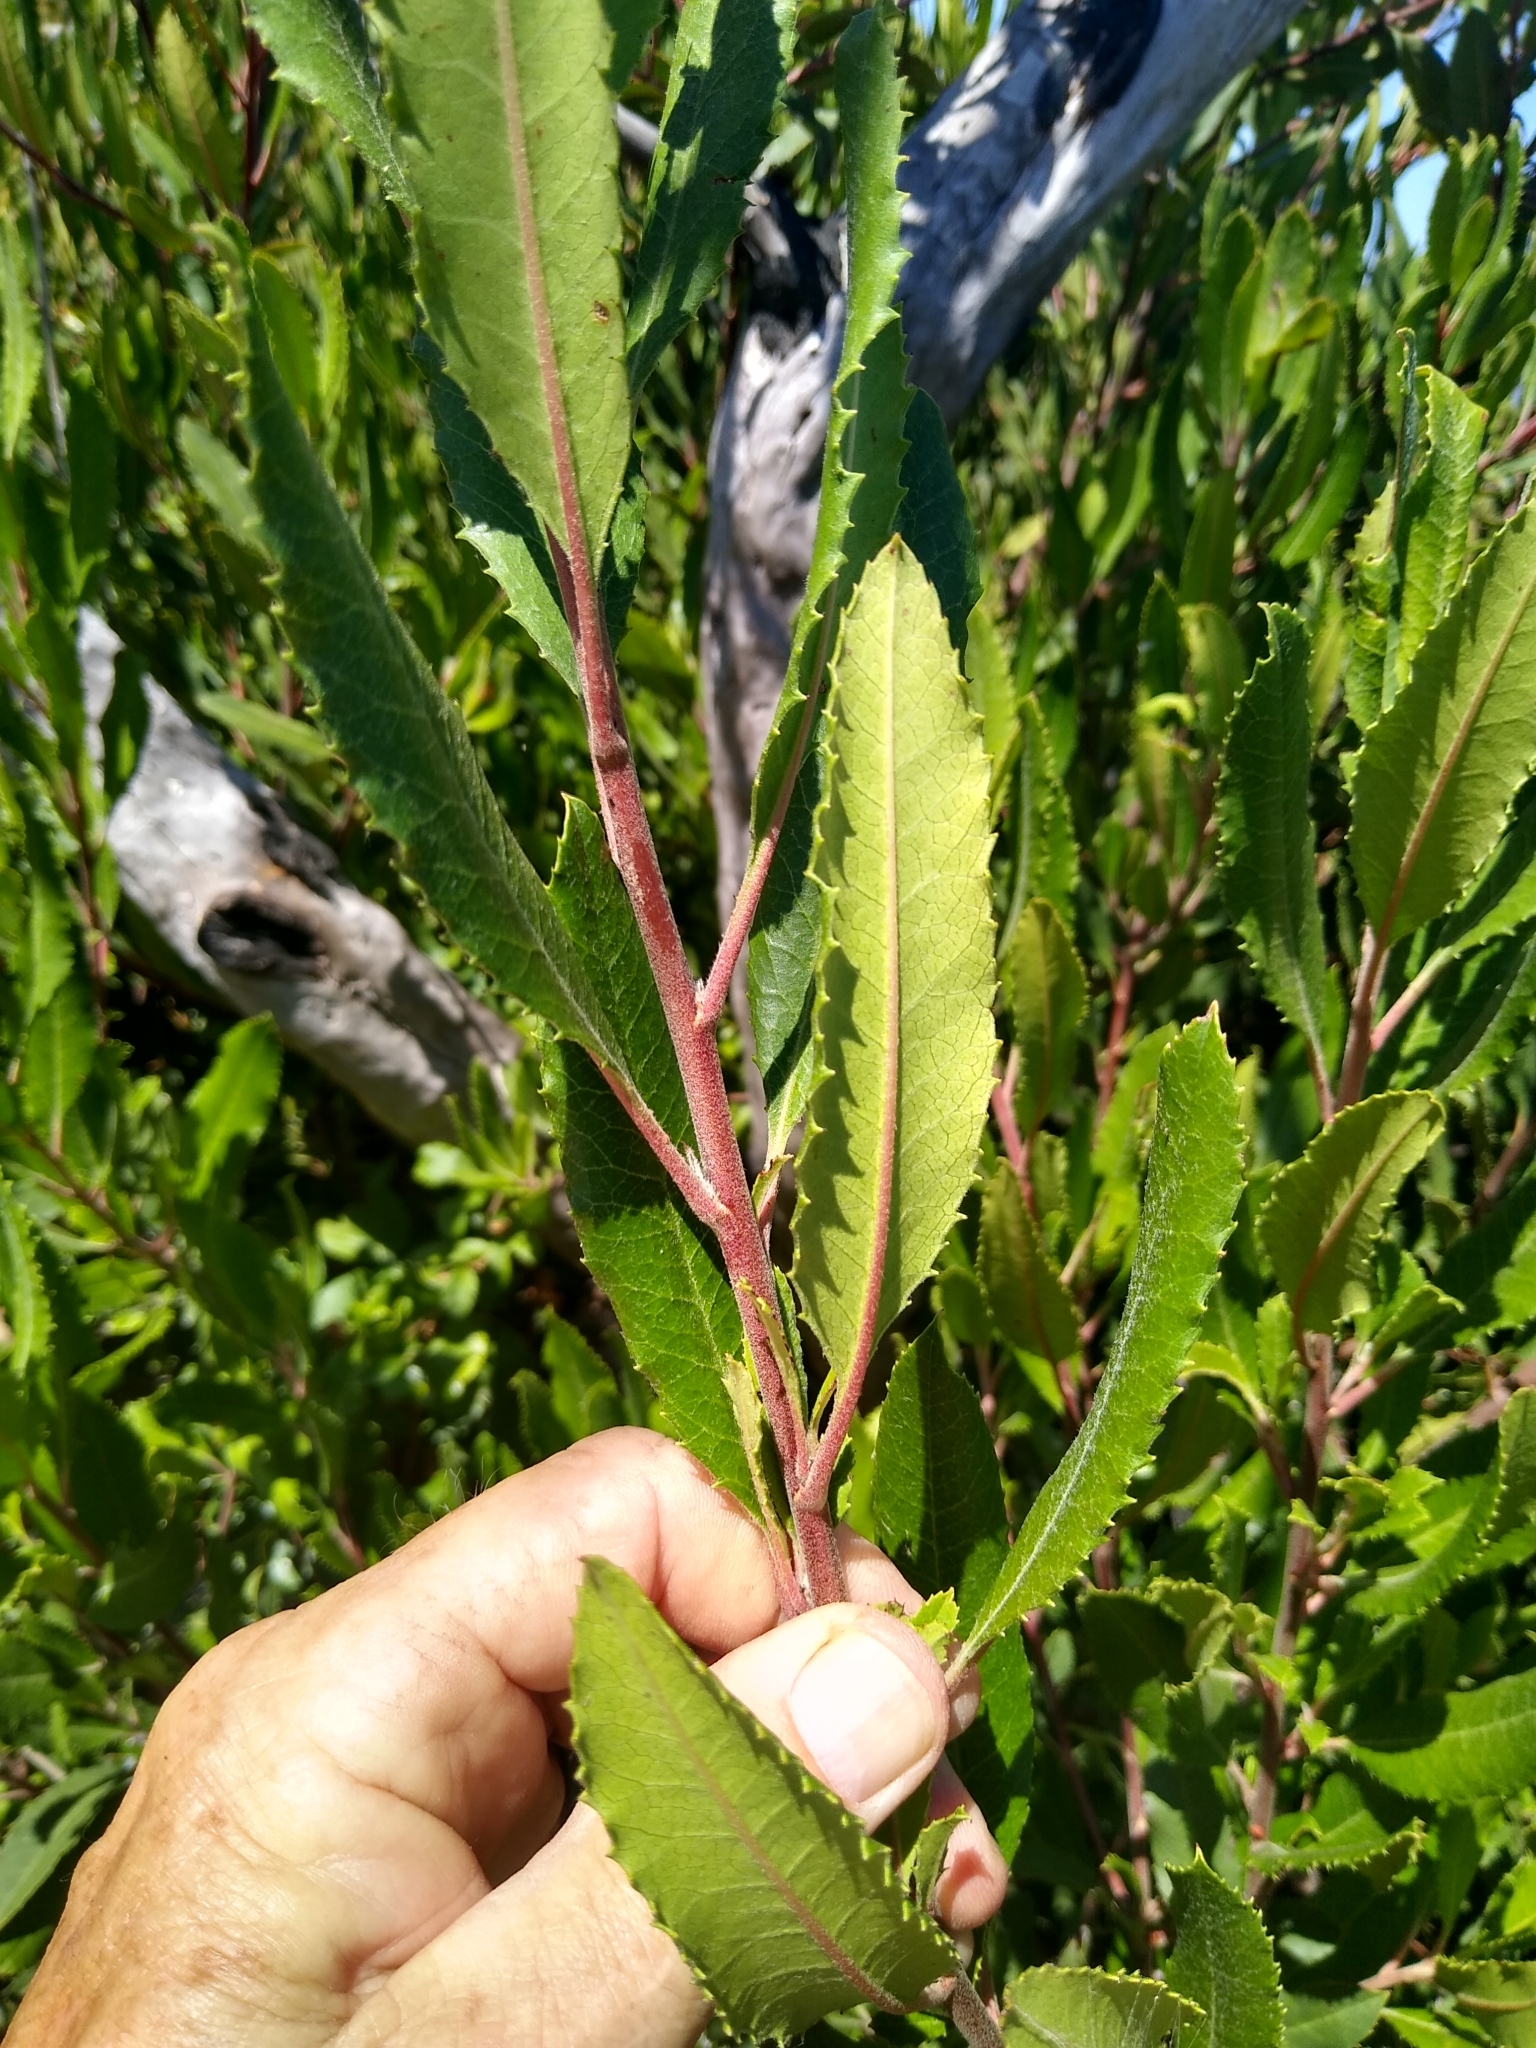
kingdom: Plantae
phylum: Tracheophyta
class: Magnoliopsida
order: Rosales
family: Rosaceae
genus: Heteromeles
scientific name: Heteromeles arbutifolia
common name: California-holly
